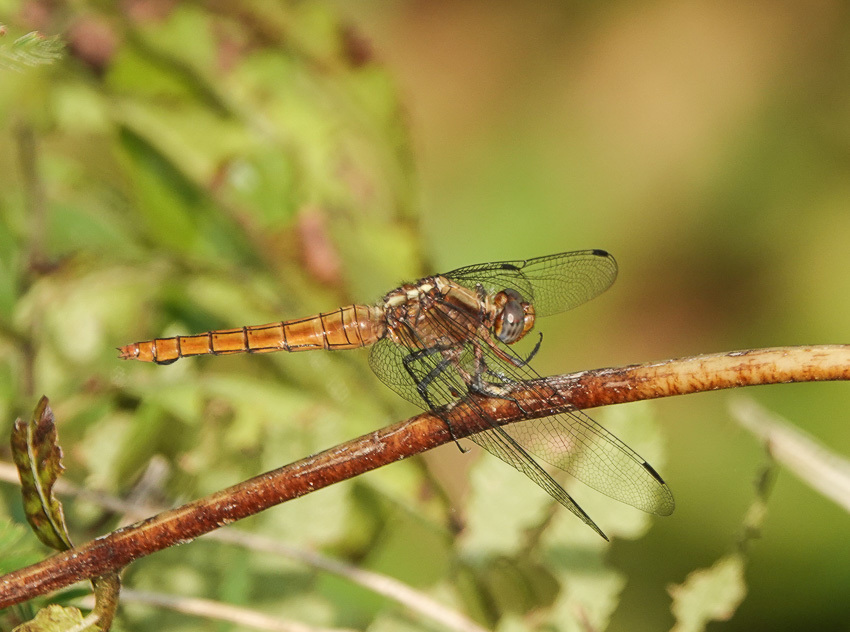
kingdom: Animalia
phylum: Arthropoda
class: Insecta
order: Odonata
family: Libellulidae
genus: Orthetrum
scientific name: Orthetrum pruinosum
